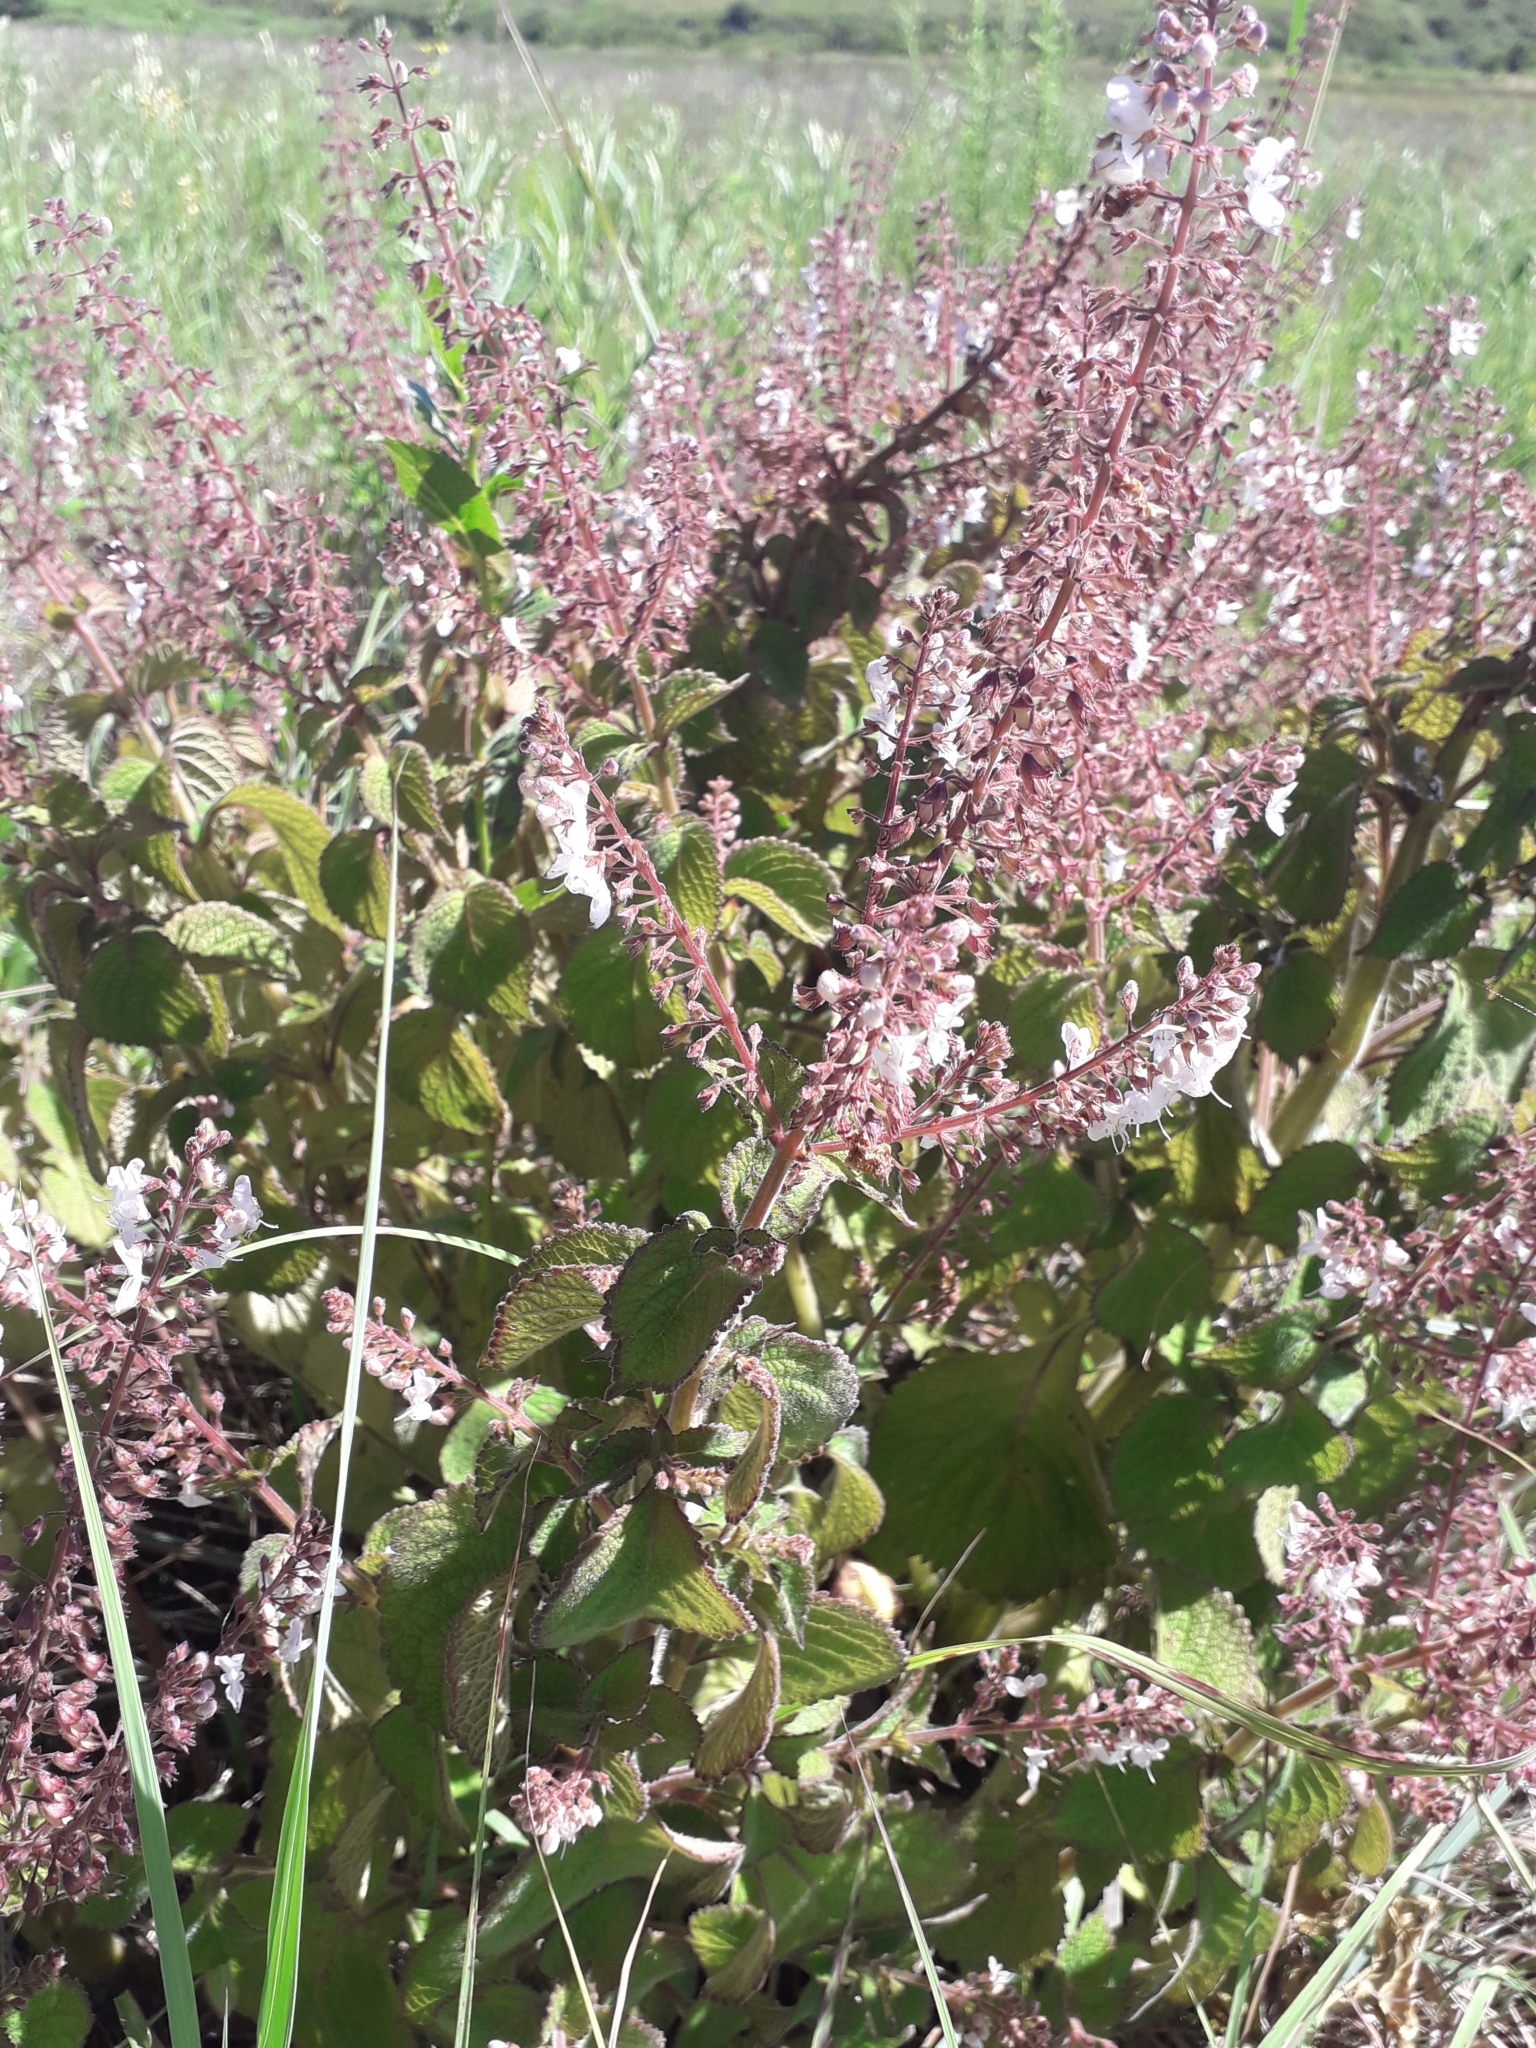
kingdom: Plantae
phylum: Tracheophyta
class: Magnoliopsida
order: Lamiales
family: Lamiaceae
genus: Plectranthus
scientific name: Plectranthus grallatus
